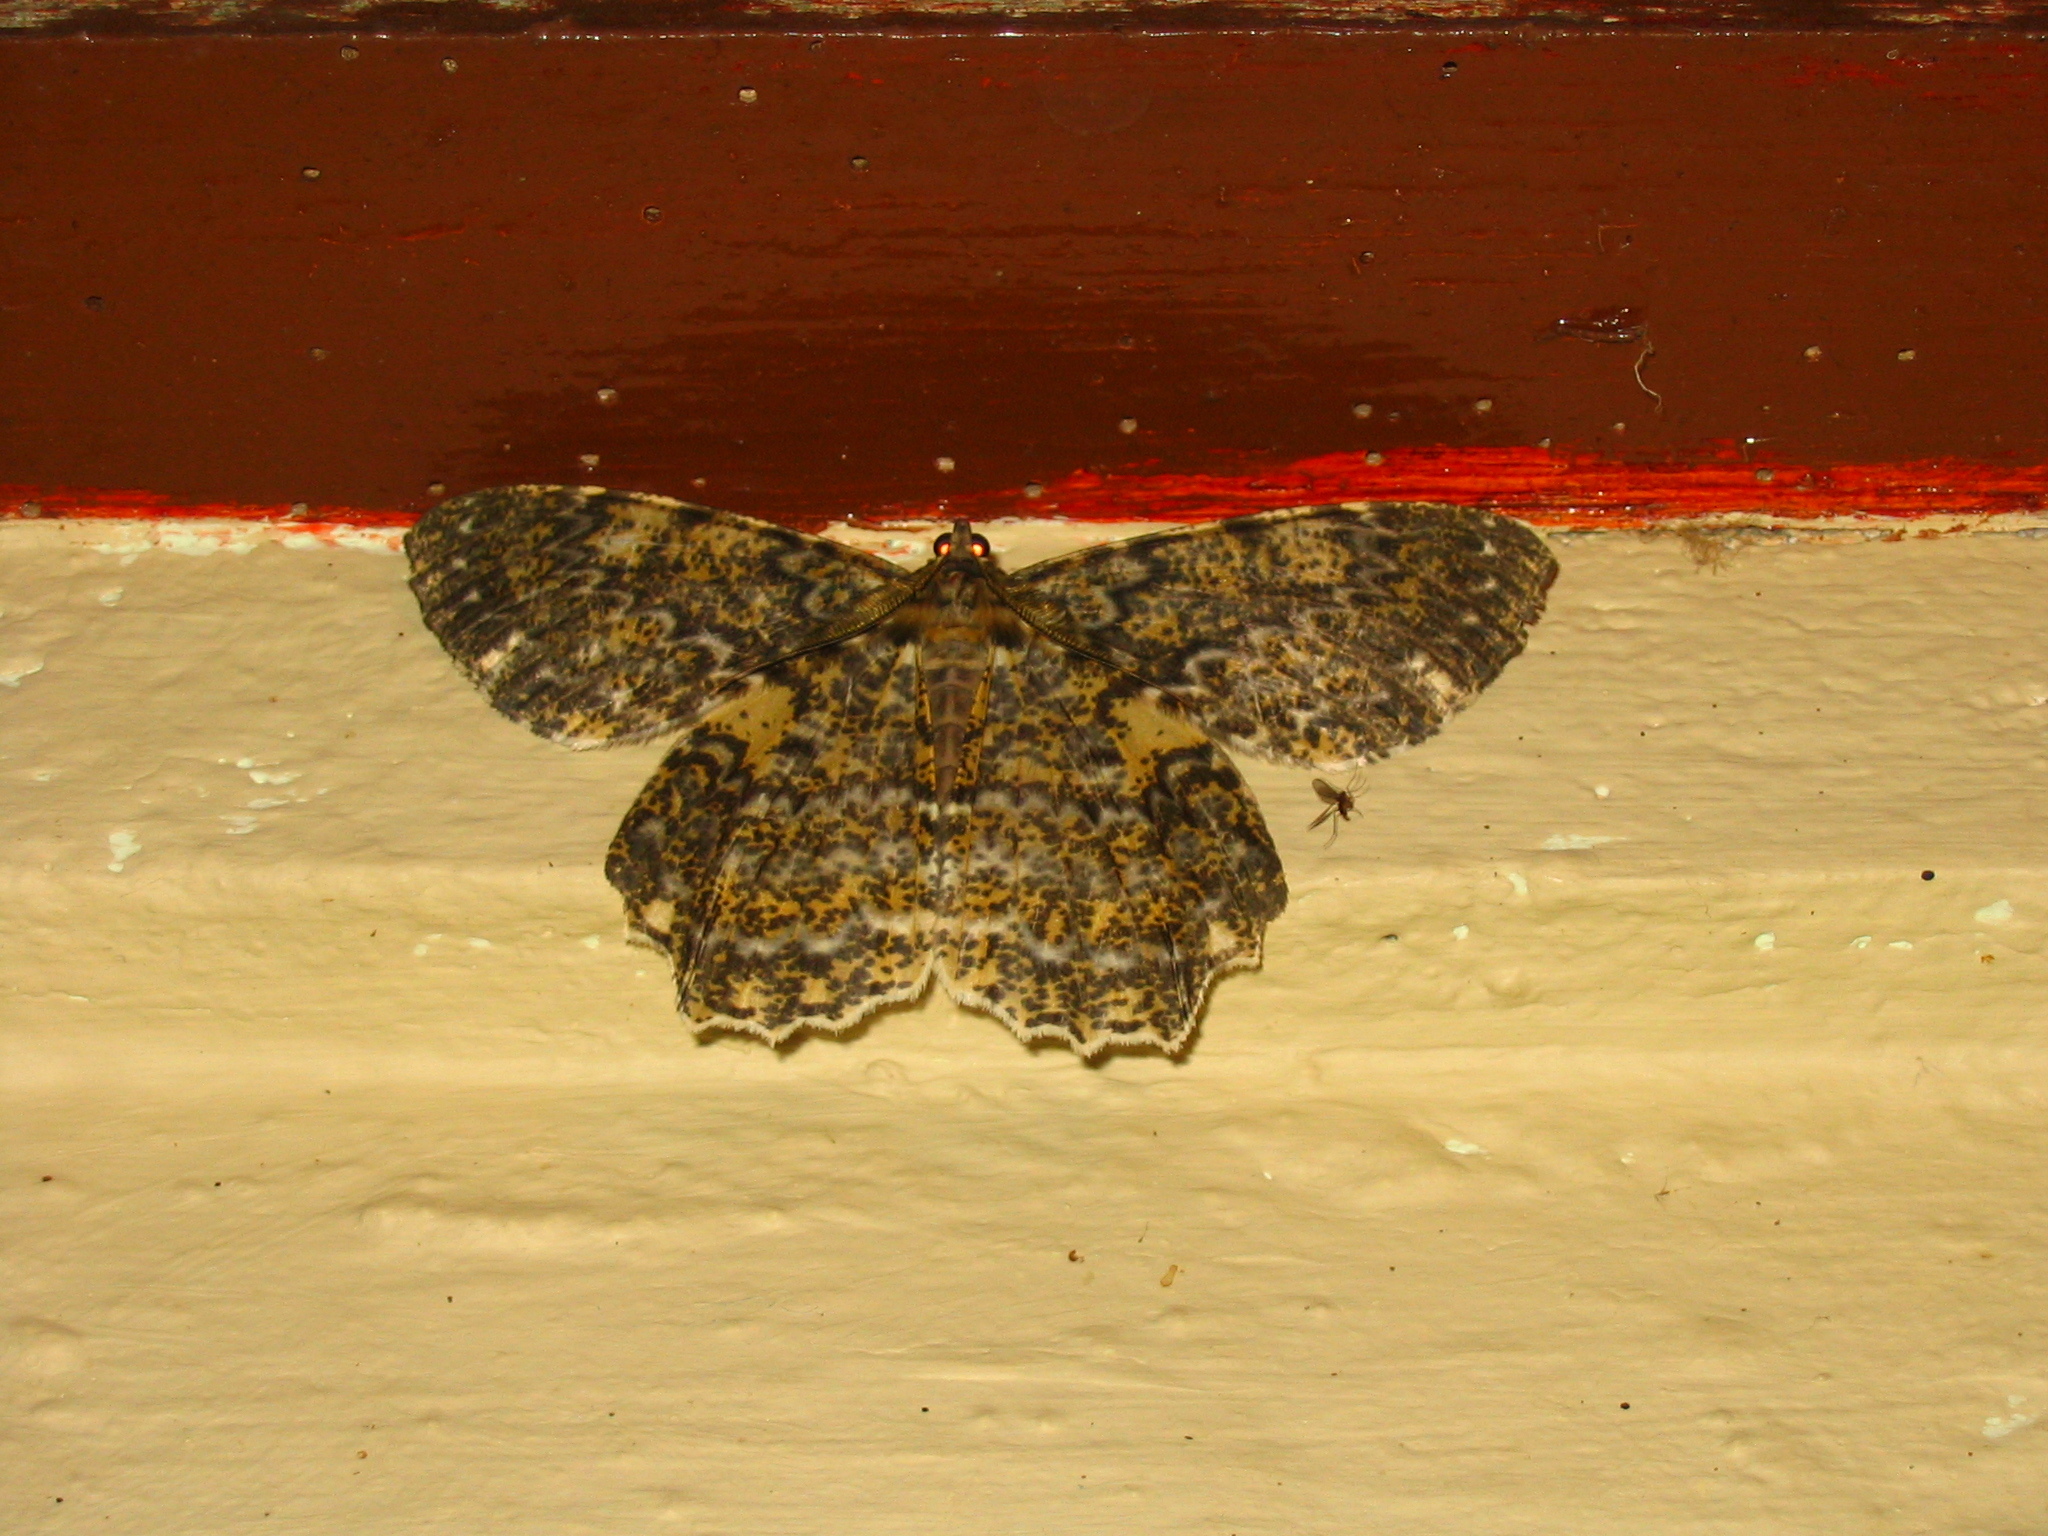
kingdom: Animalia
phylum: Arthropoda
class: Insecta
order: Lepidoptera
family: Geometridae
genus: Amblychia
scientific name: Amblychia cavimargo
